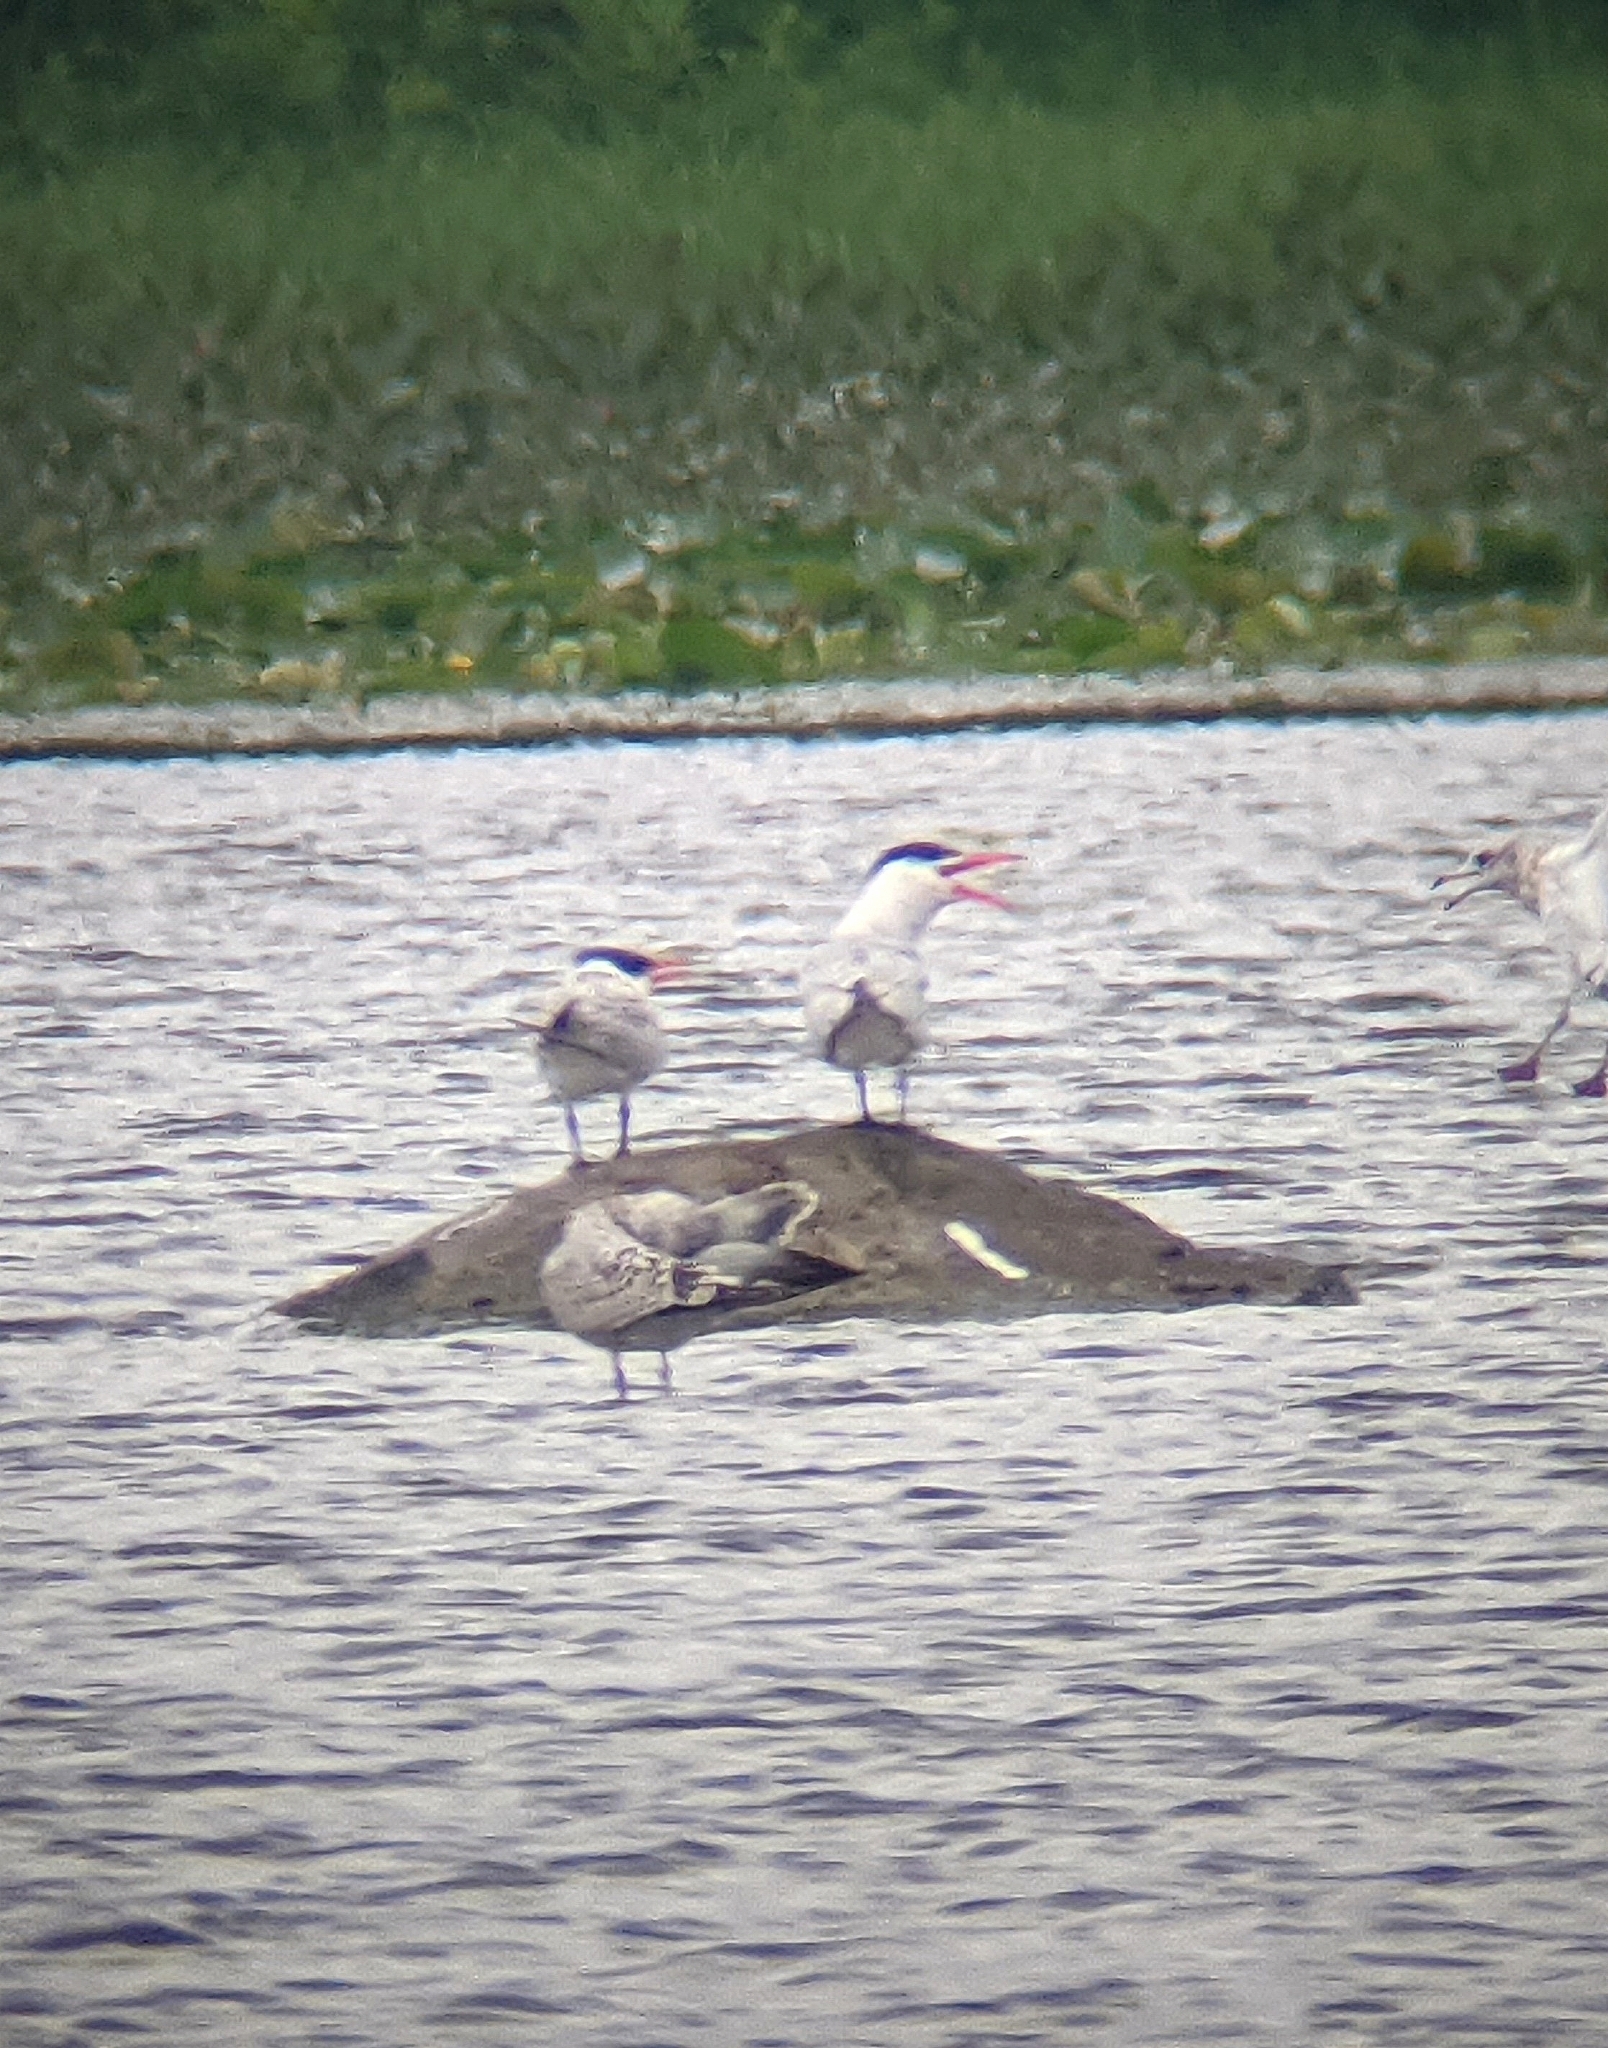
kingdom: Animalia
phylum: Chordata
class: Aves
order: Charadriiformes
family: Laridae
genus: Hydroprogne
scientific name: Hydroprogne caspia
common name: Caspian tern
